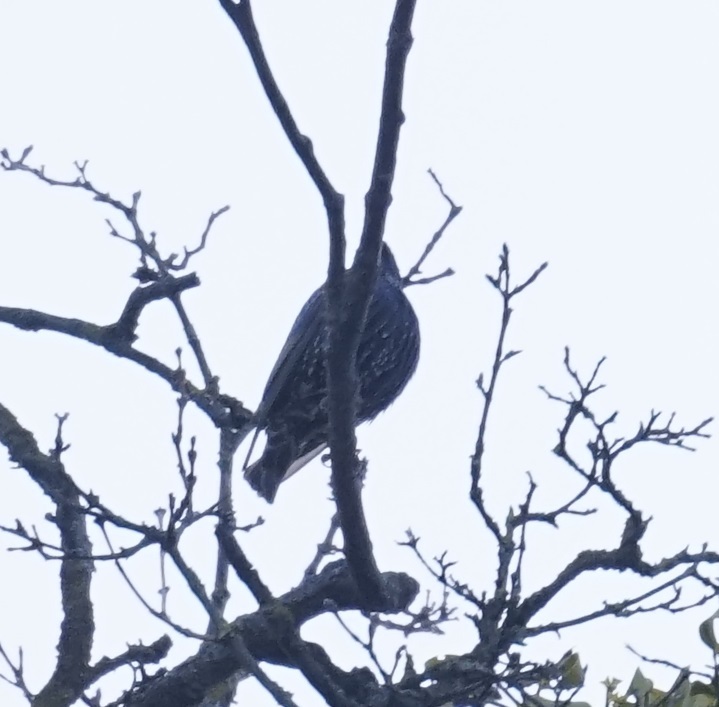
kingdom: Animalia
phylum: Chordata
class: Aves
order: Passeriformes
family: Sturnidae
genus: Sturnus
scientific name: Sturnus vulgaris
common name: Common starling
